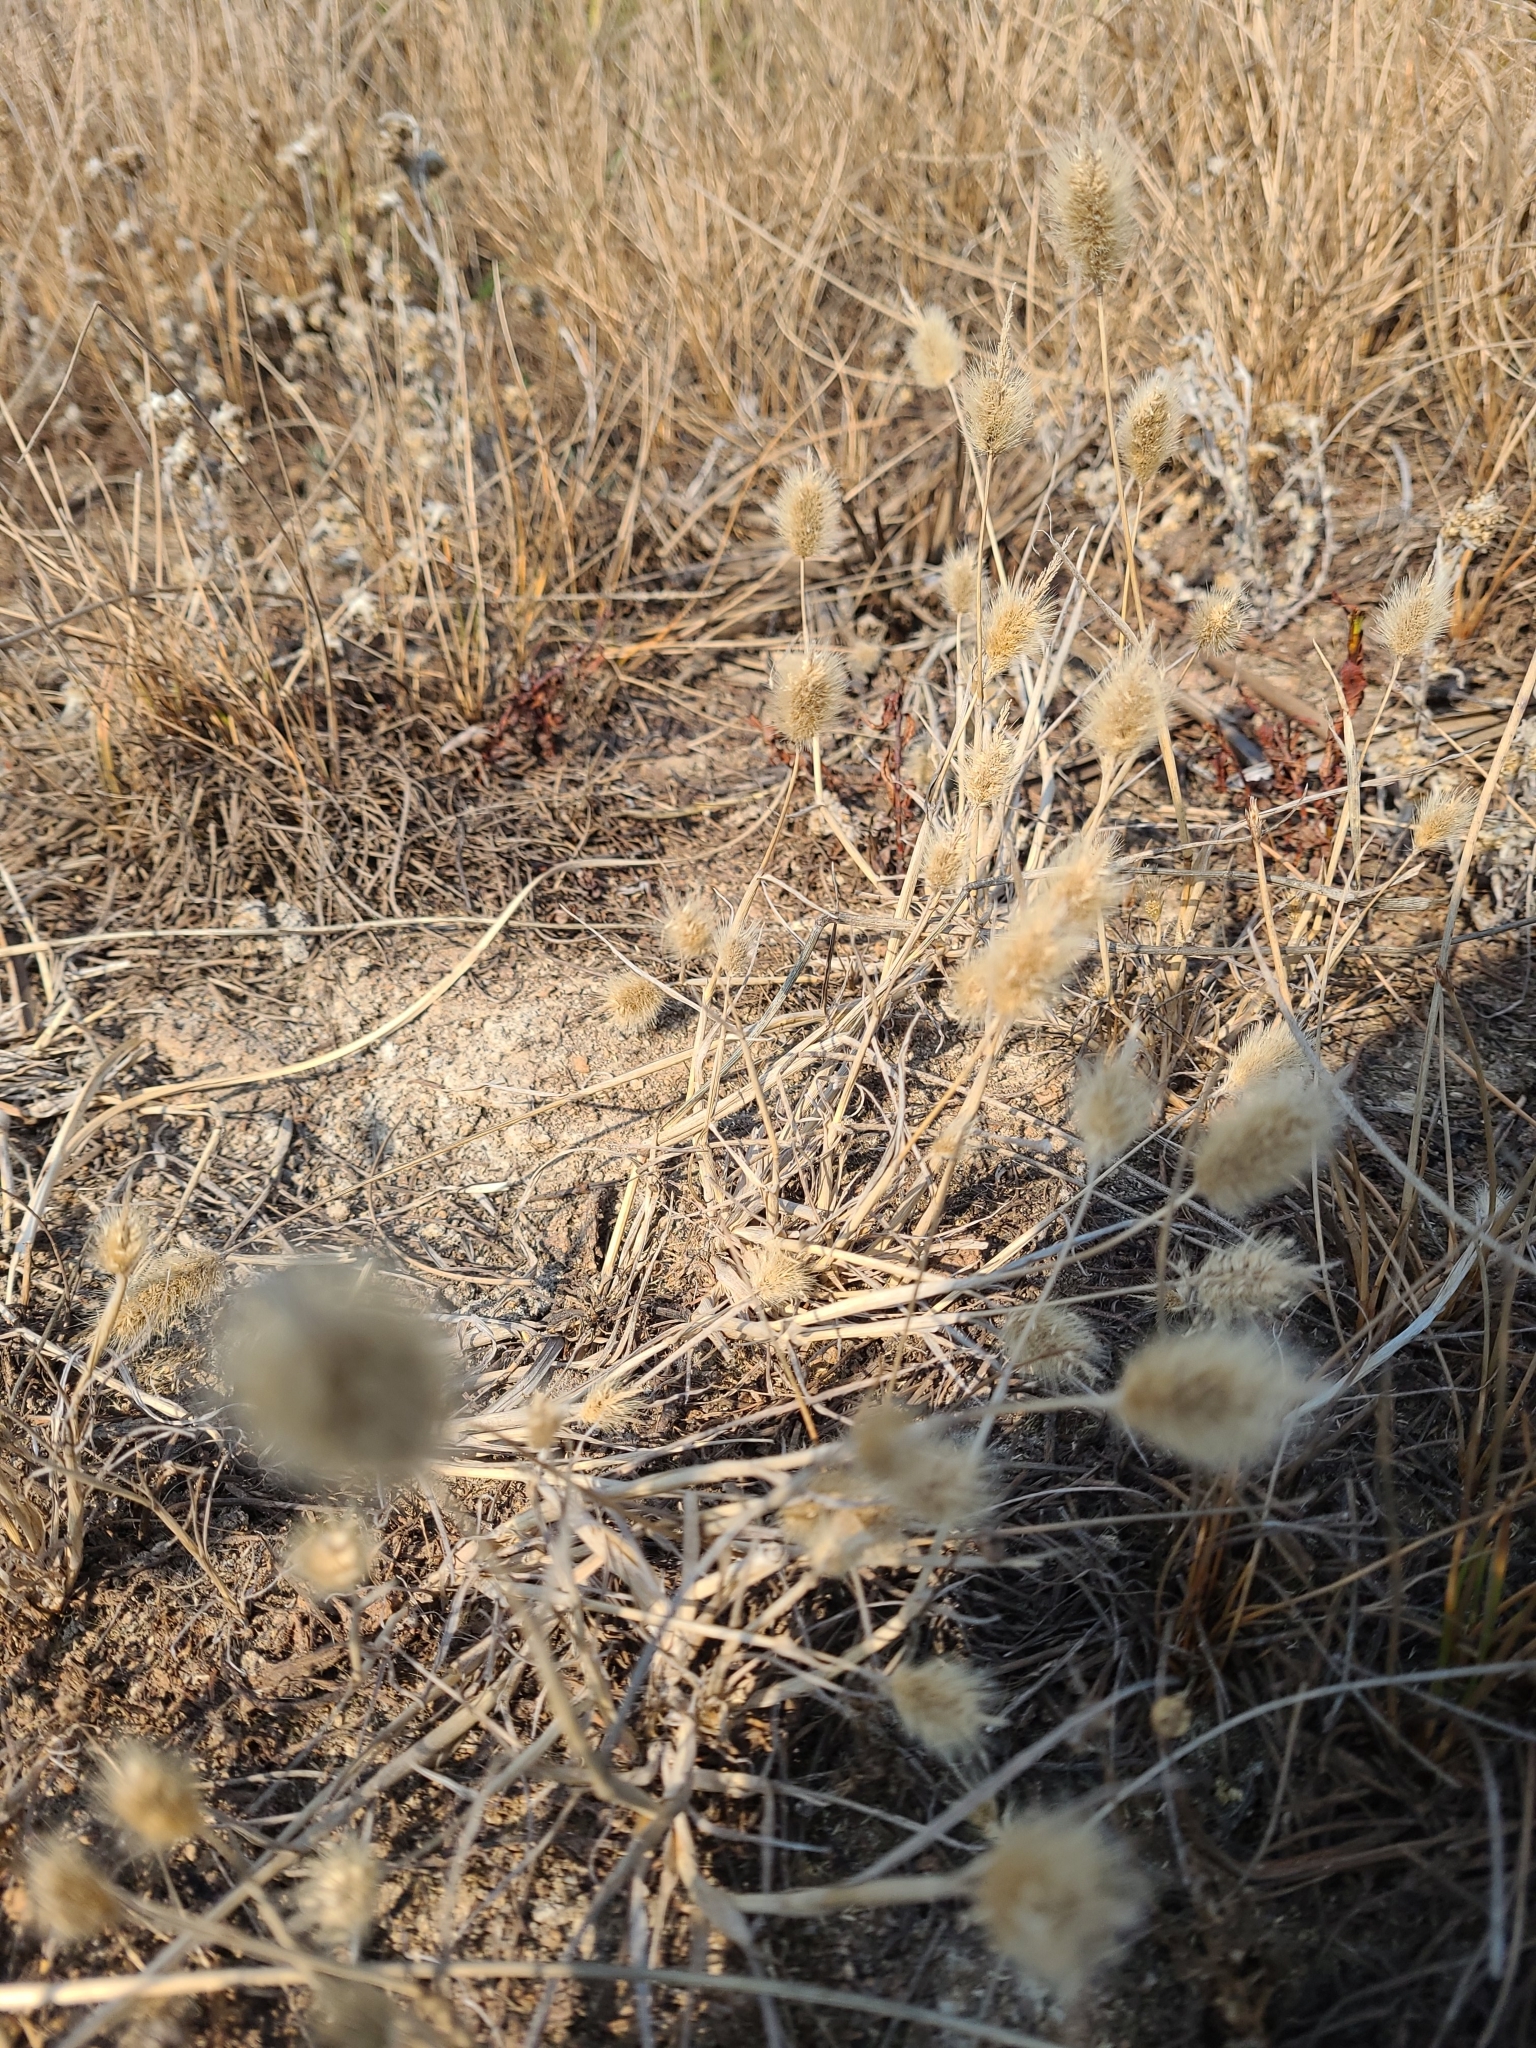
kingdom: Plantae
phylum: Tracheophyta
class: Liliopsida
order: Poales
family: Poaceae
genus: Lagurus
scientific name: Lagurus ovatus
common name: Hare's-tail
